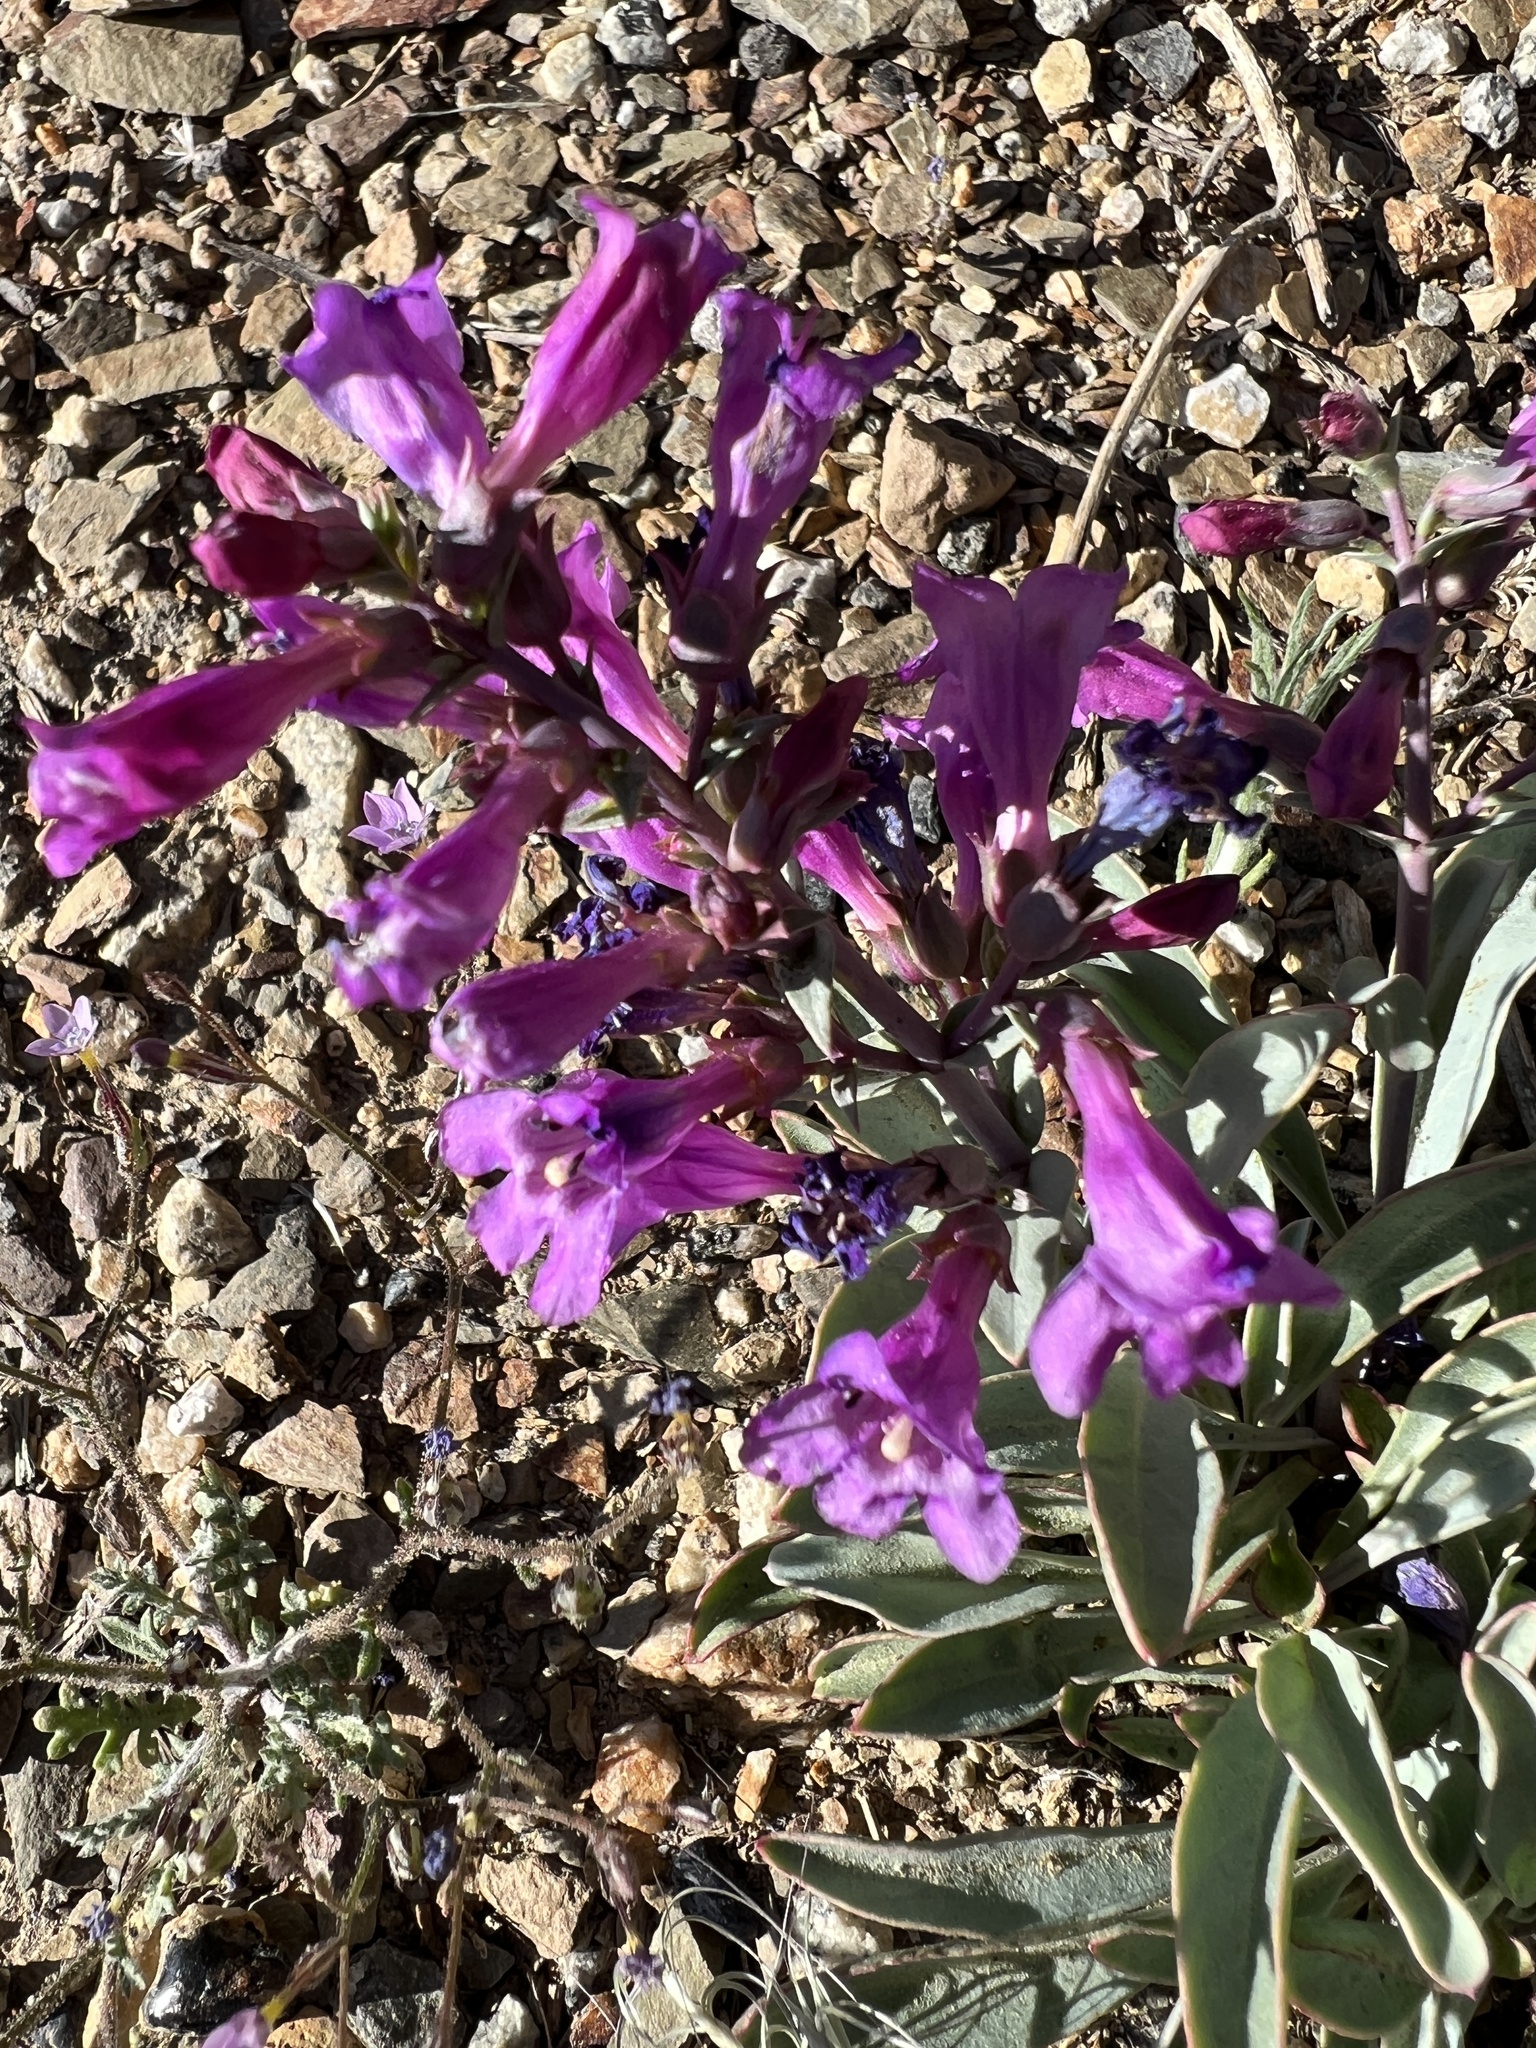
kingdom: Plantae
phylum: Tracheophyta
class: Magnoliopsida
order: Lamiales
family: Plantaginaceae
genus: Penstemon
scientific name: Penstemon patens
